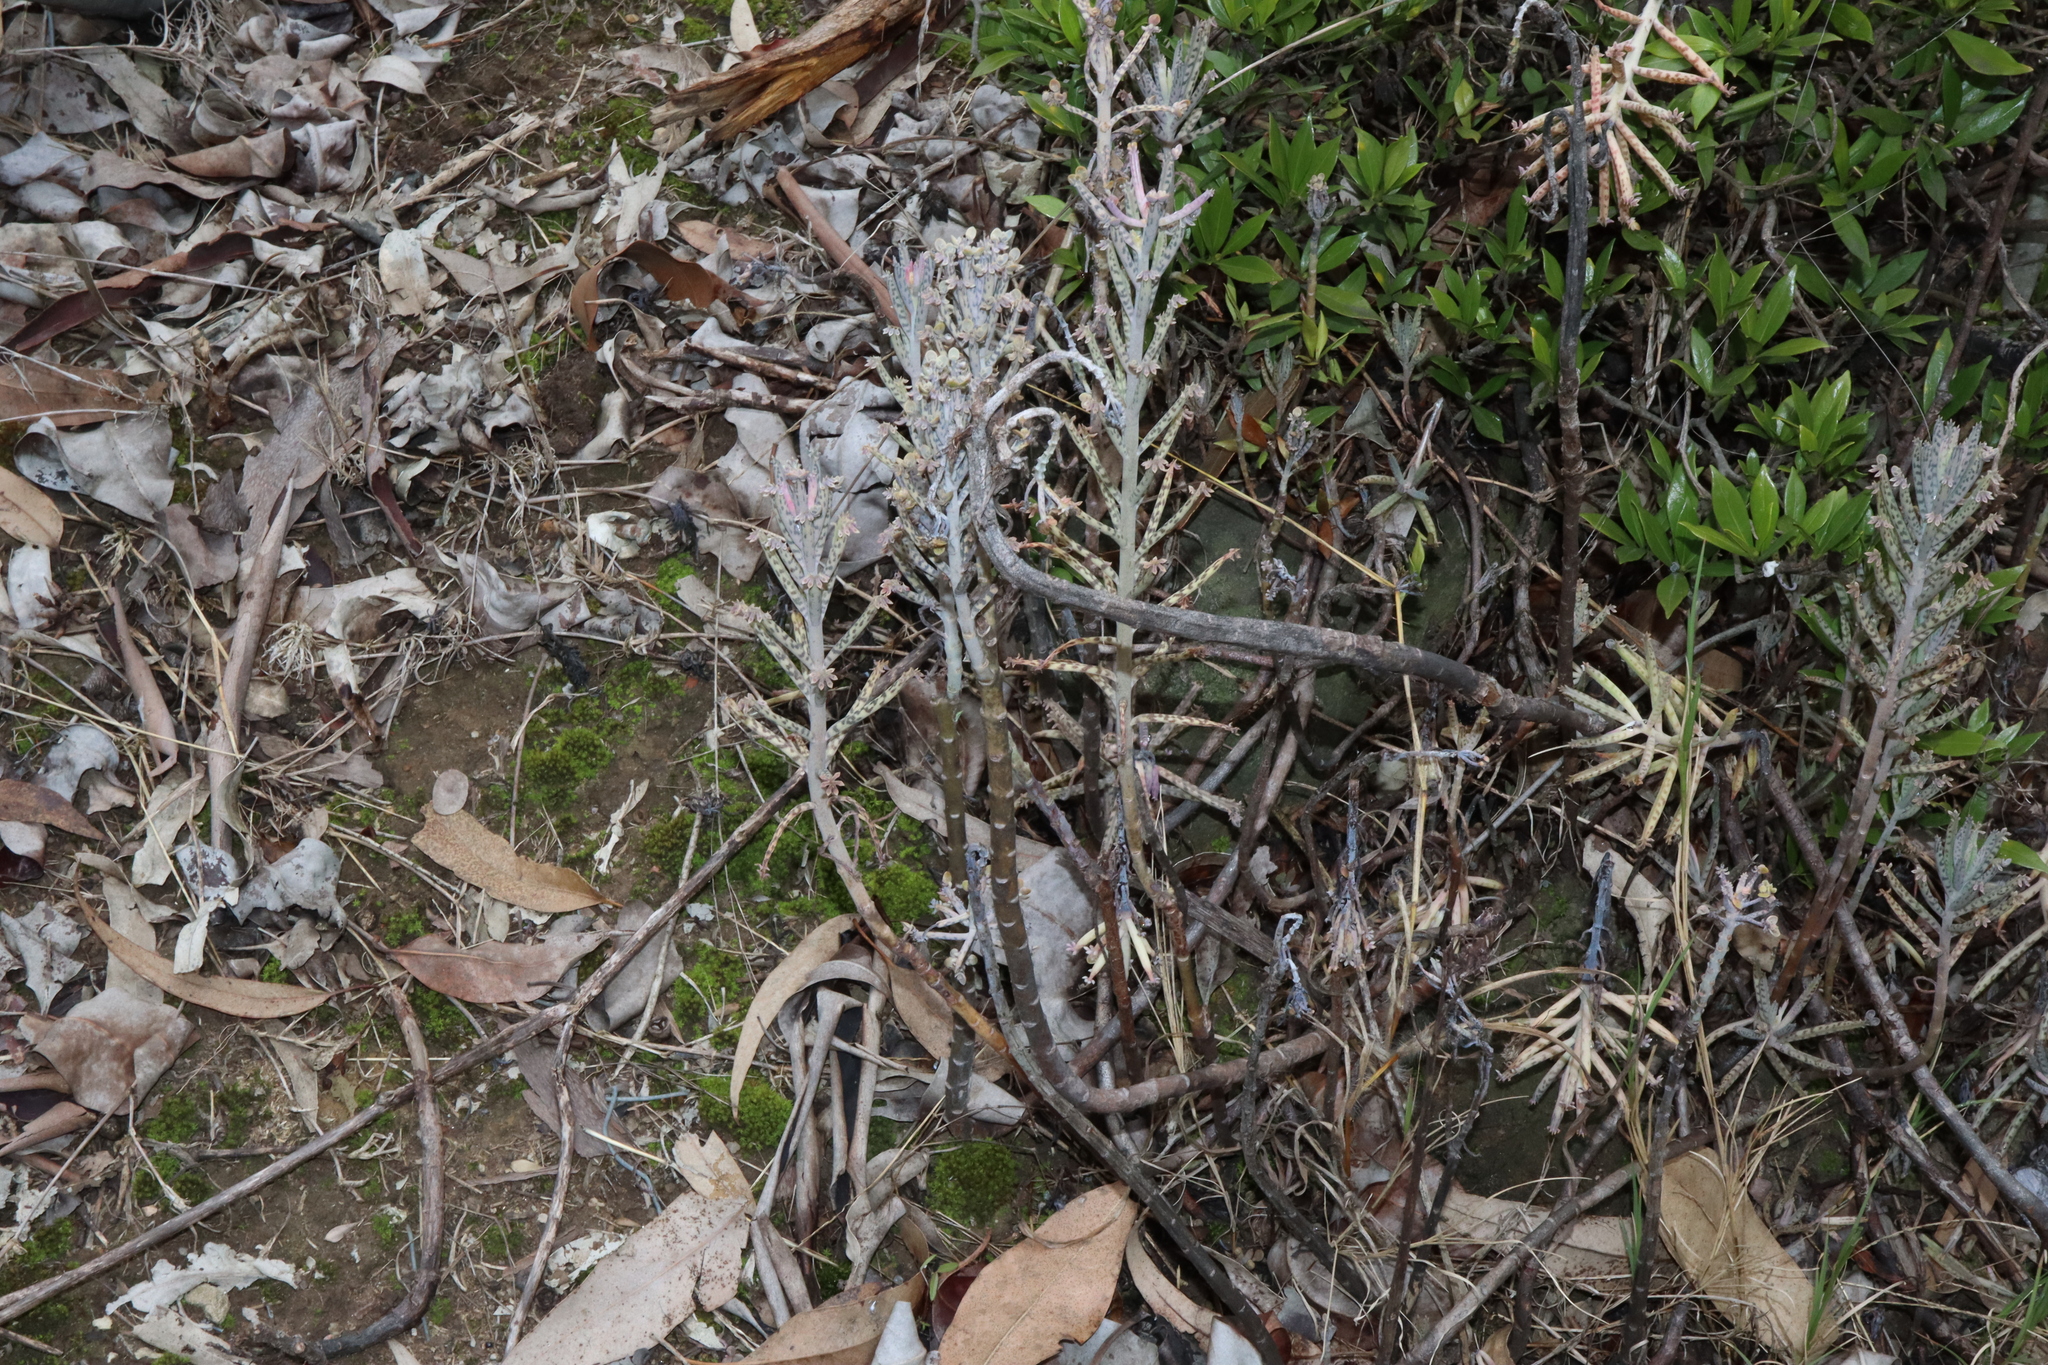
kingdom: Plantae
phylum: Tracheophyta
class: Magnoliopsida
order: Saxifragales
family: Crassulaceae
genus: Kalanchoe
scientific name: Kalanchoe delagoensis
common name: Chandelier plant
